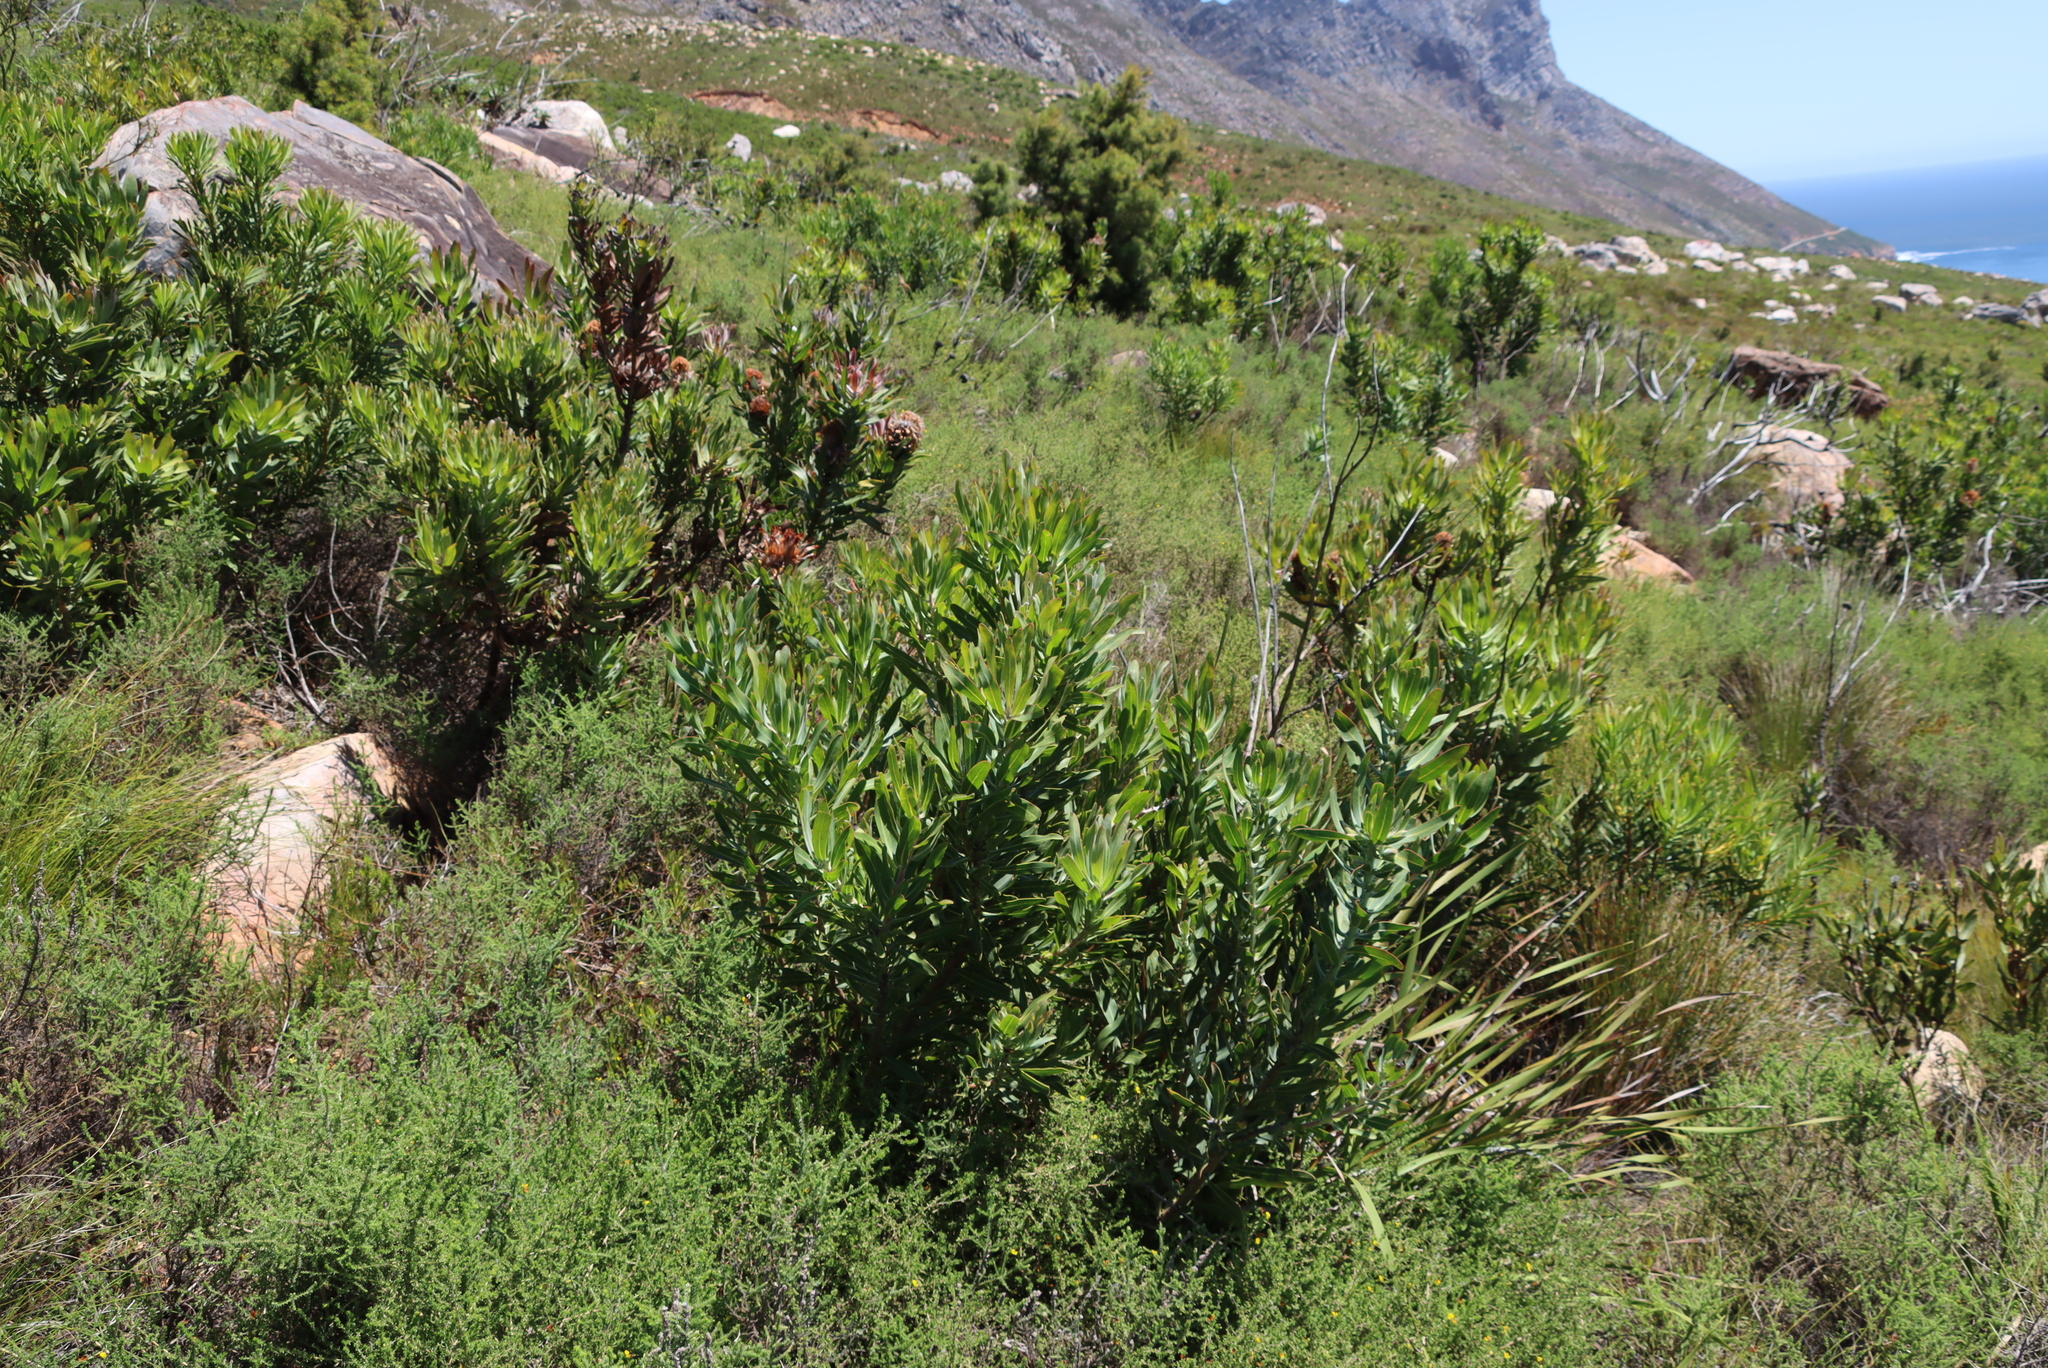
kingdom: Plantae
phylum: Tracheophyta
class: Magnoliopsida
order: Proteales
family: Proteaceae
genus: Protea
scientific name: Protea laurifolia
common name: Grey-leaf sugarbsh
